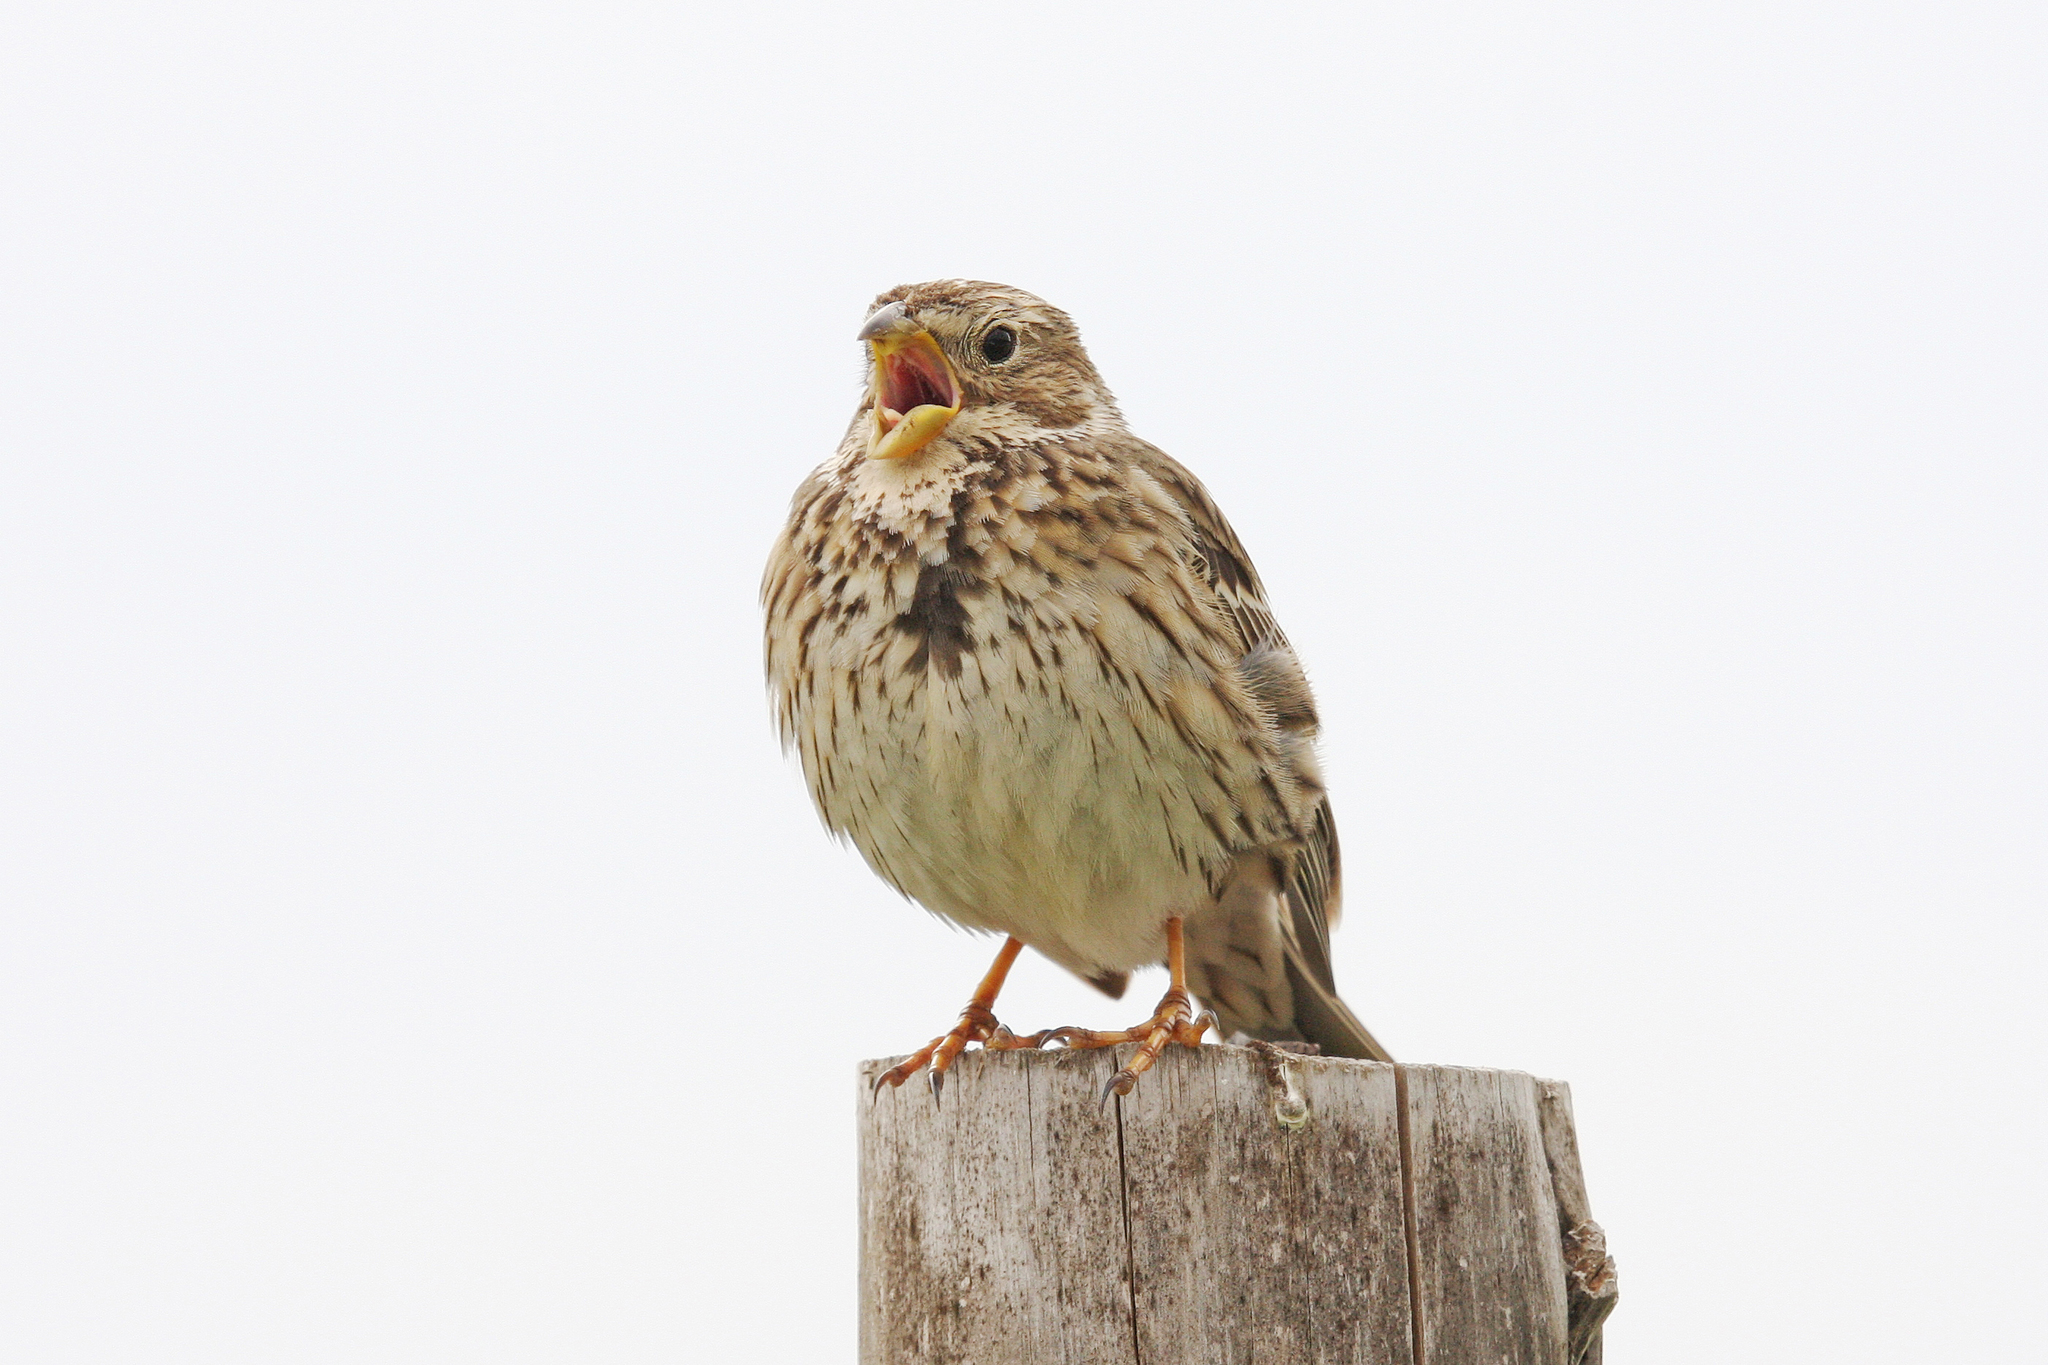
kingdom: Animalia
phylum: Chordata
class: Aves
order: Passeriformes
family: Emberizidae
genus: Emberiza
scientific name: Emberiza calandra
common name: Corn bunting
